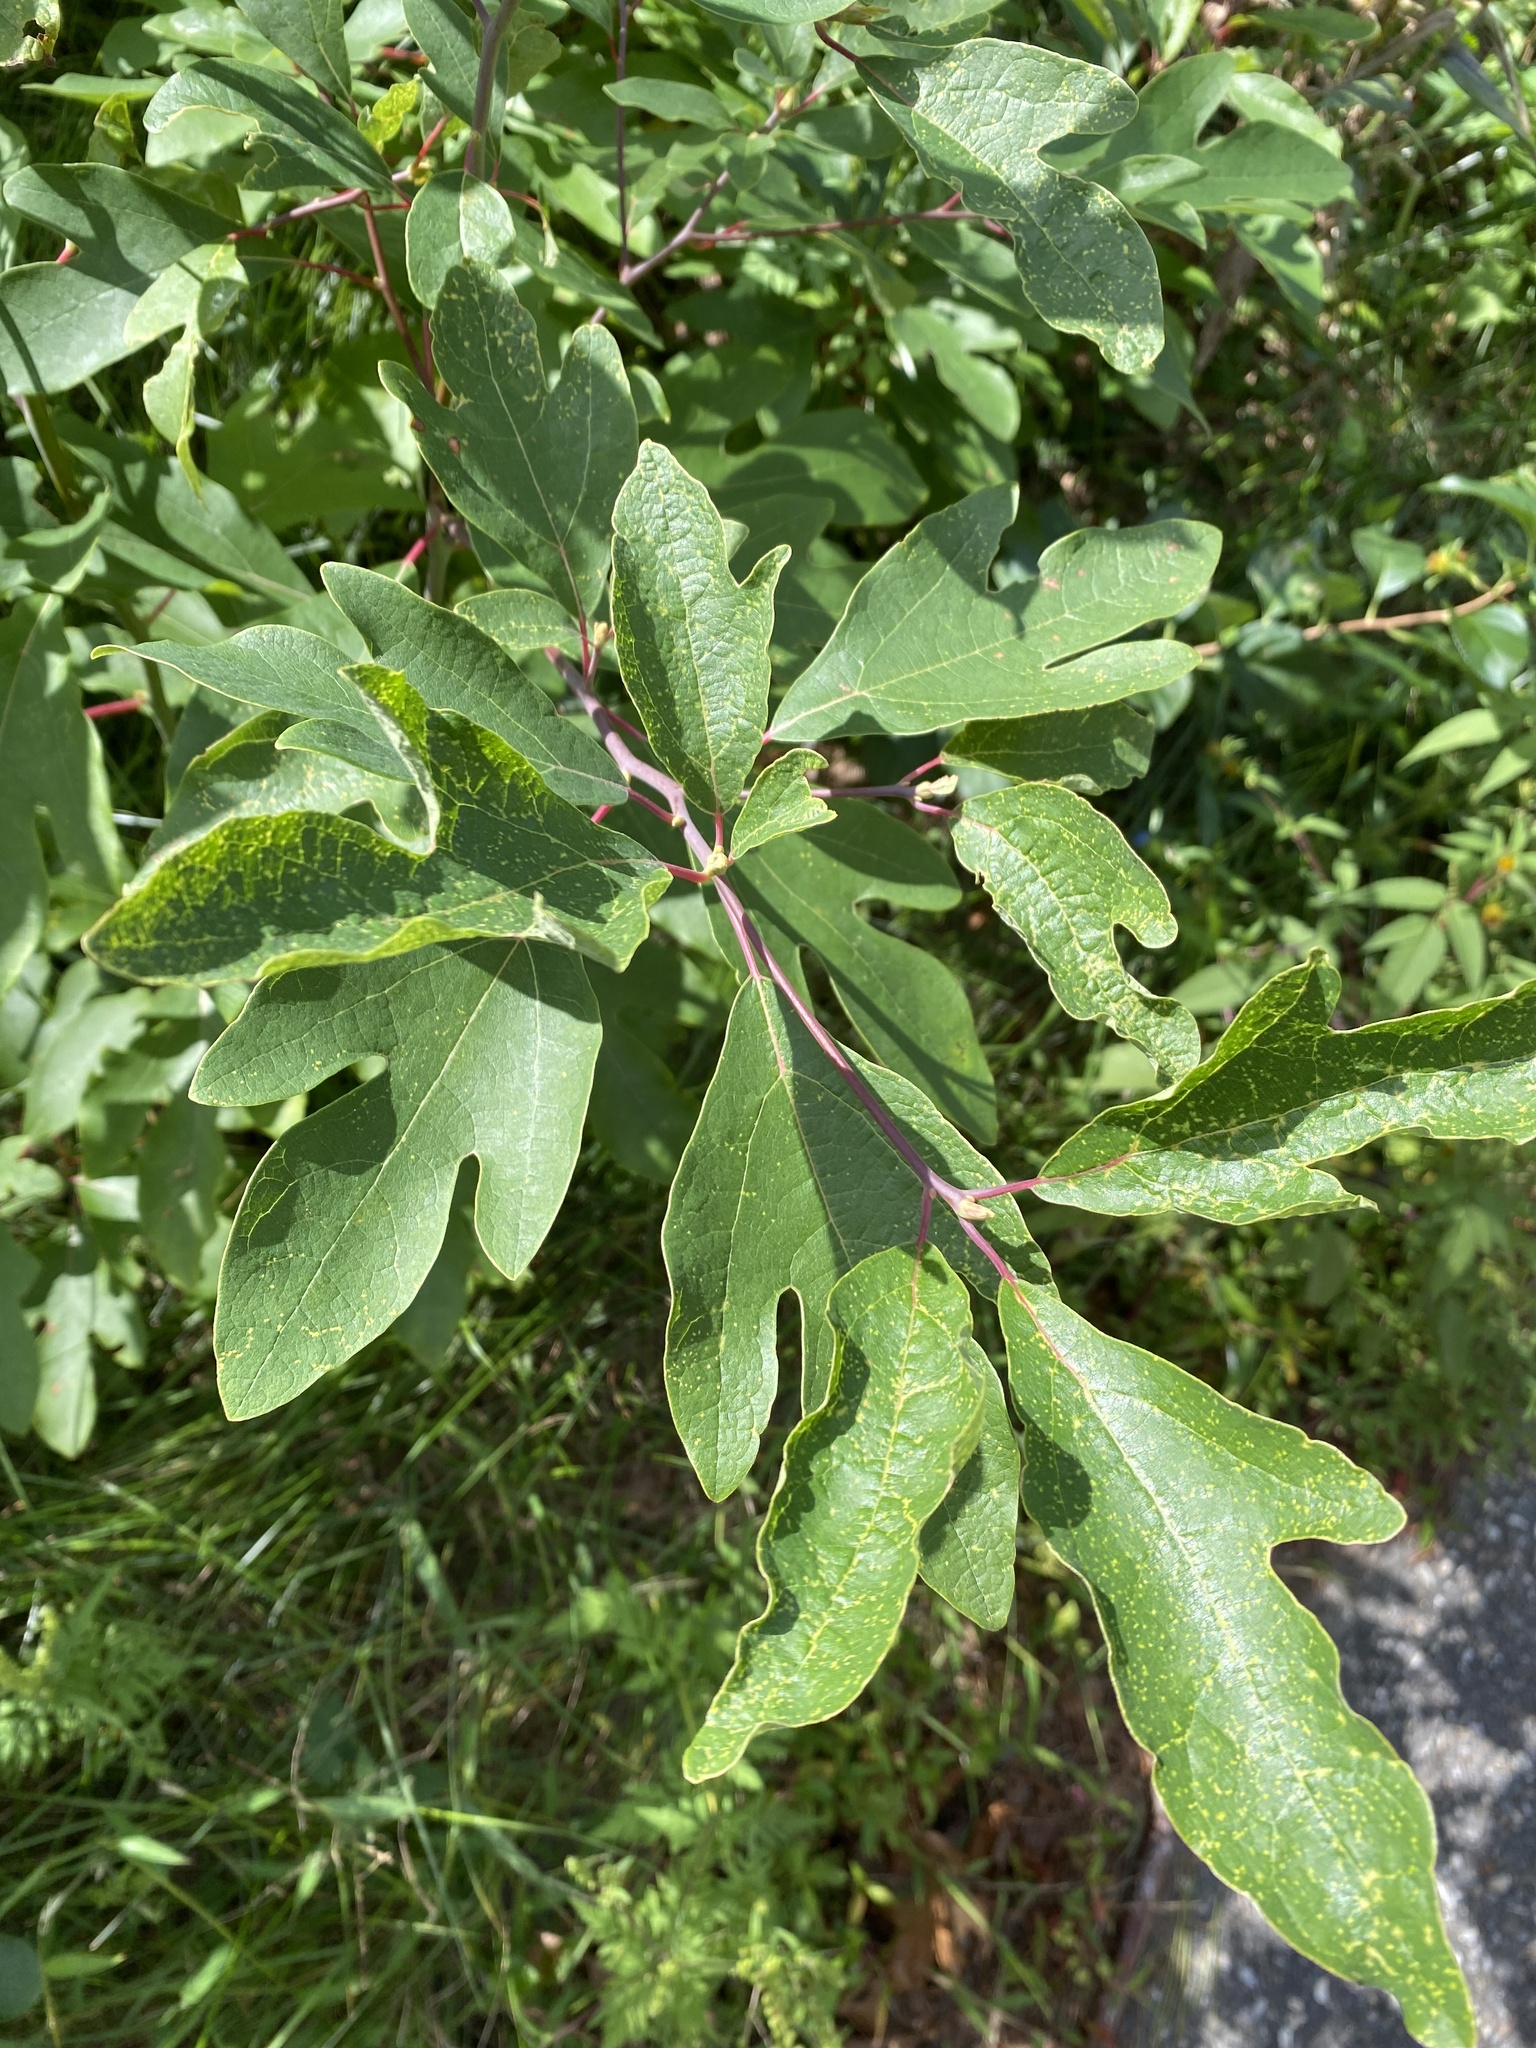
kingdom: Plantae
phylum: Tracheophyta
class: Magnoliopsida
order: Laurales
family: Lauraceae
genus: Sassafras
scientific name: Sassafras albidum
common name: Sassafras
